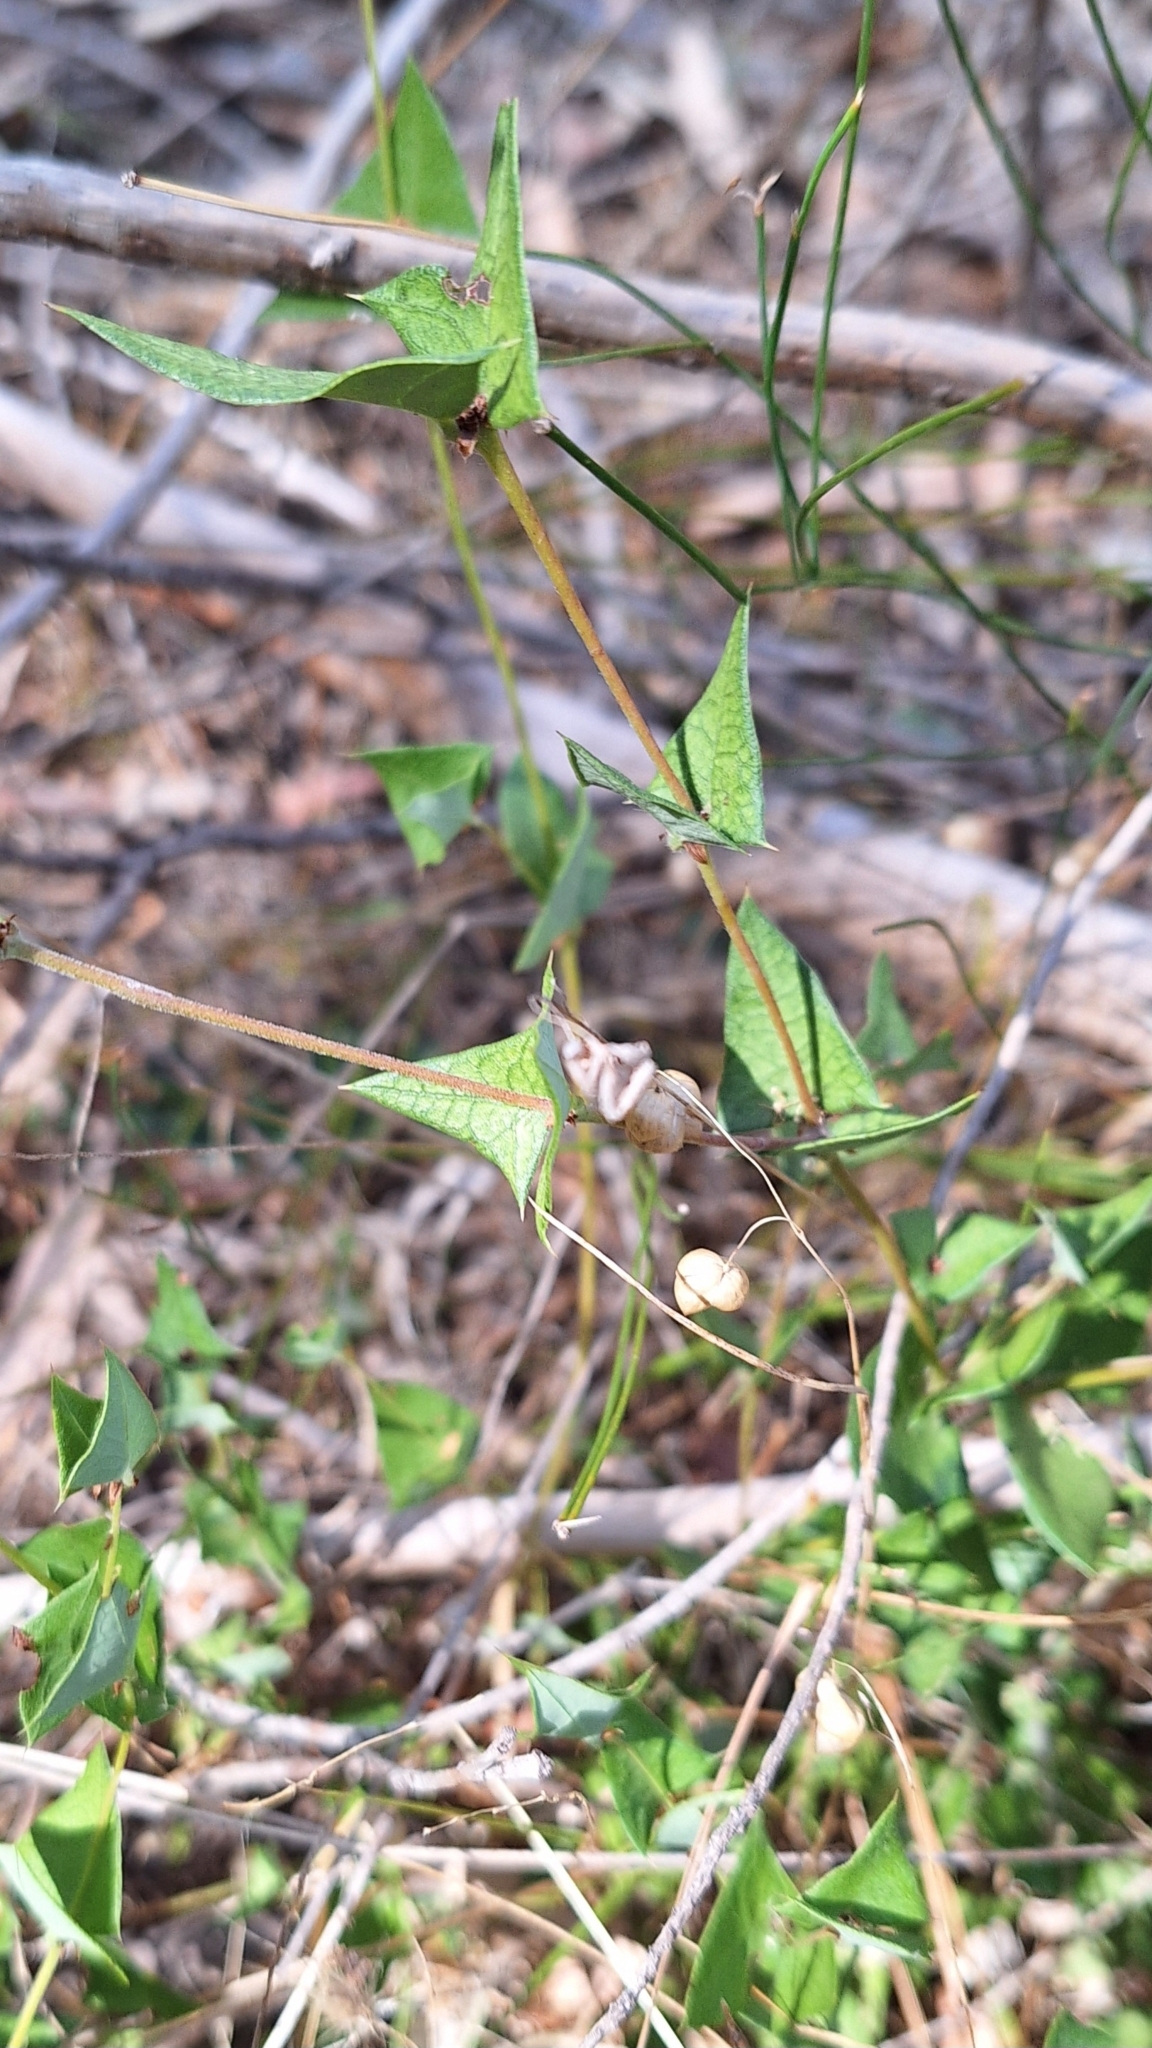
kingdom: Plantae
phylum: Tracheophyta
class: Magnoliopsida
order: Fabales
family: Fabaceae
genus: Platylobium
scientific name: Platylobium obtusangulum
